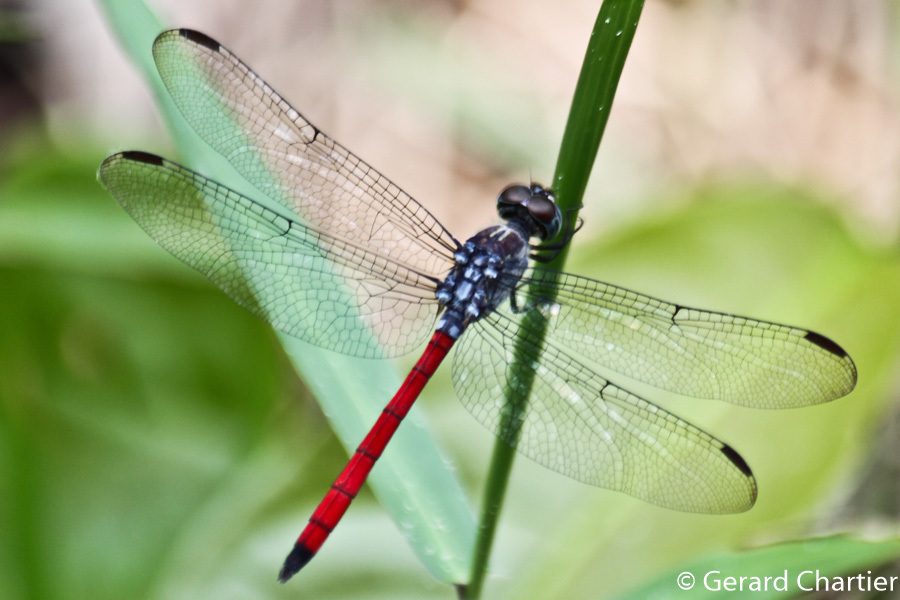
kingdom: Animalia
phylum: Arthropoda
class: Insecta
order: Odonata
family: Libellulidae
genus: Lathrecista
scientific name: Lathrecista asiatica
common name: Scarlet grenadier
